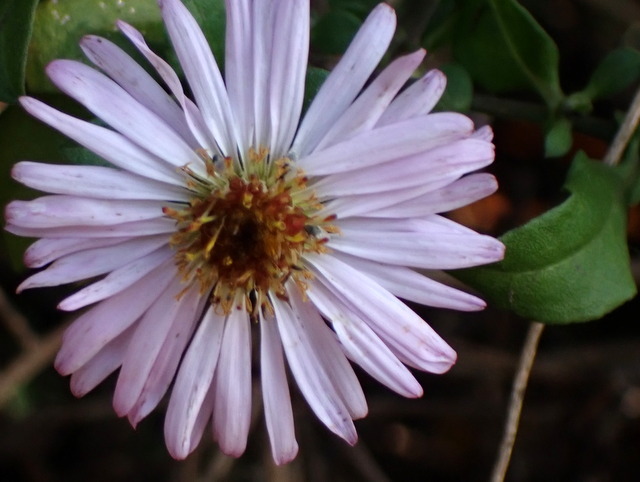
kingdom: Plantae
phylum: Tracheophyta
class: Magnoliopsida
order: Asterales
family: Asteraceae
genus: Ampelaster
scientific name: Ampelaster carolinianus
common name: Climbing aster
